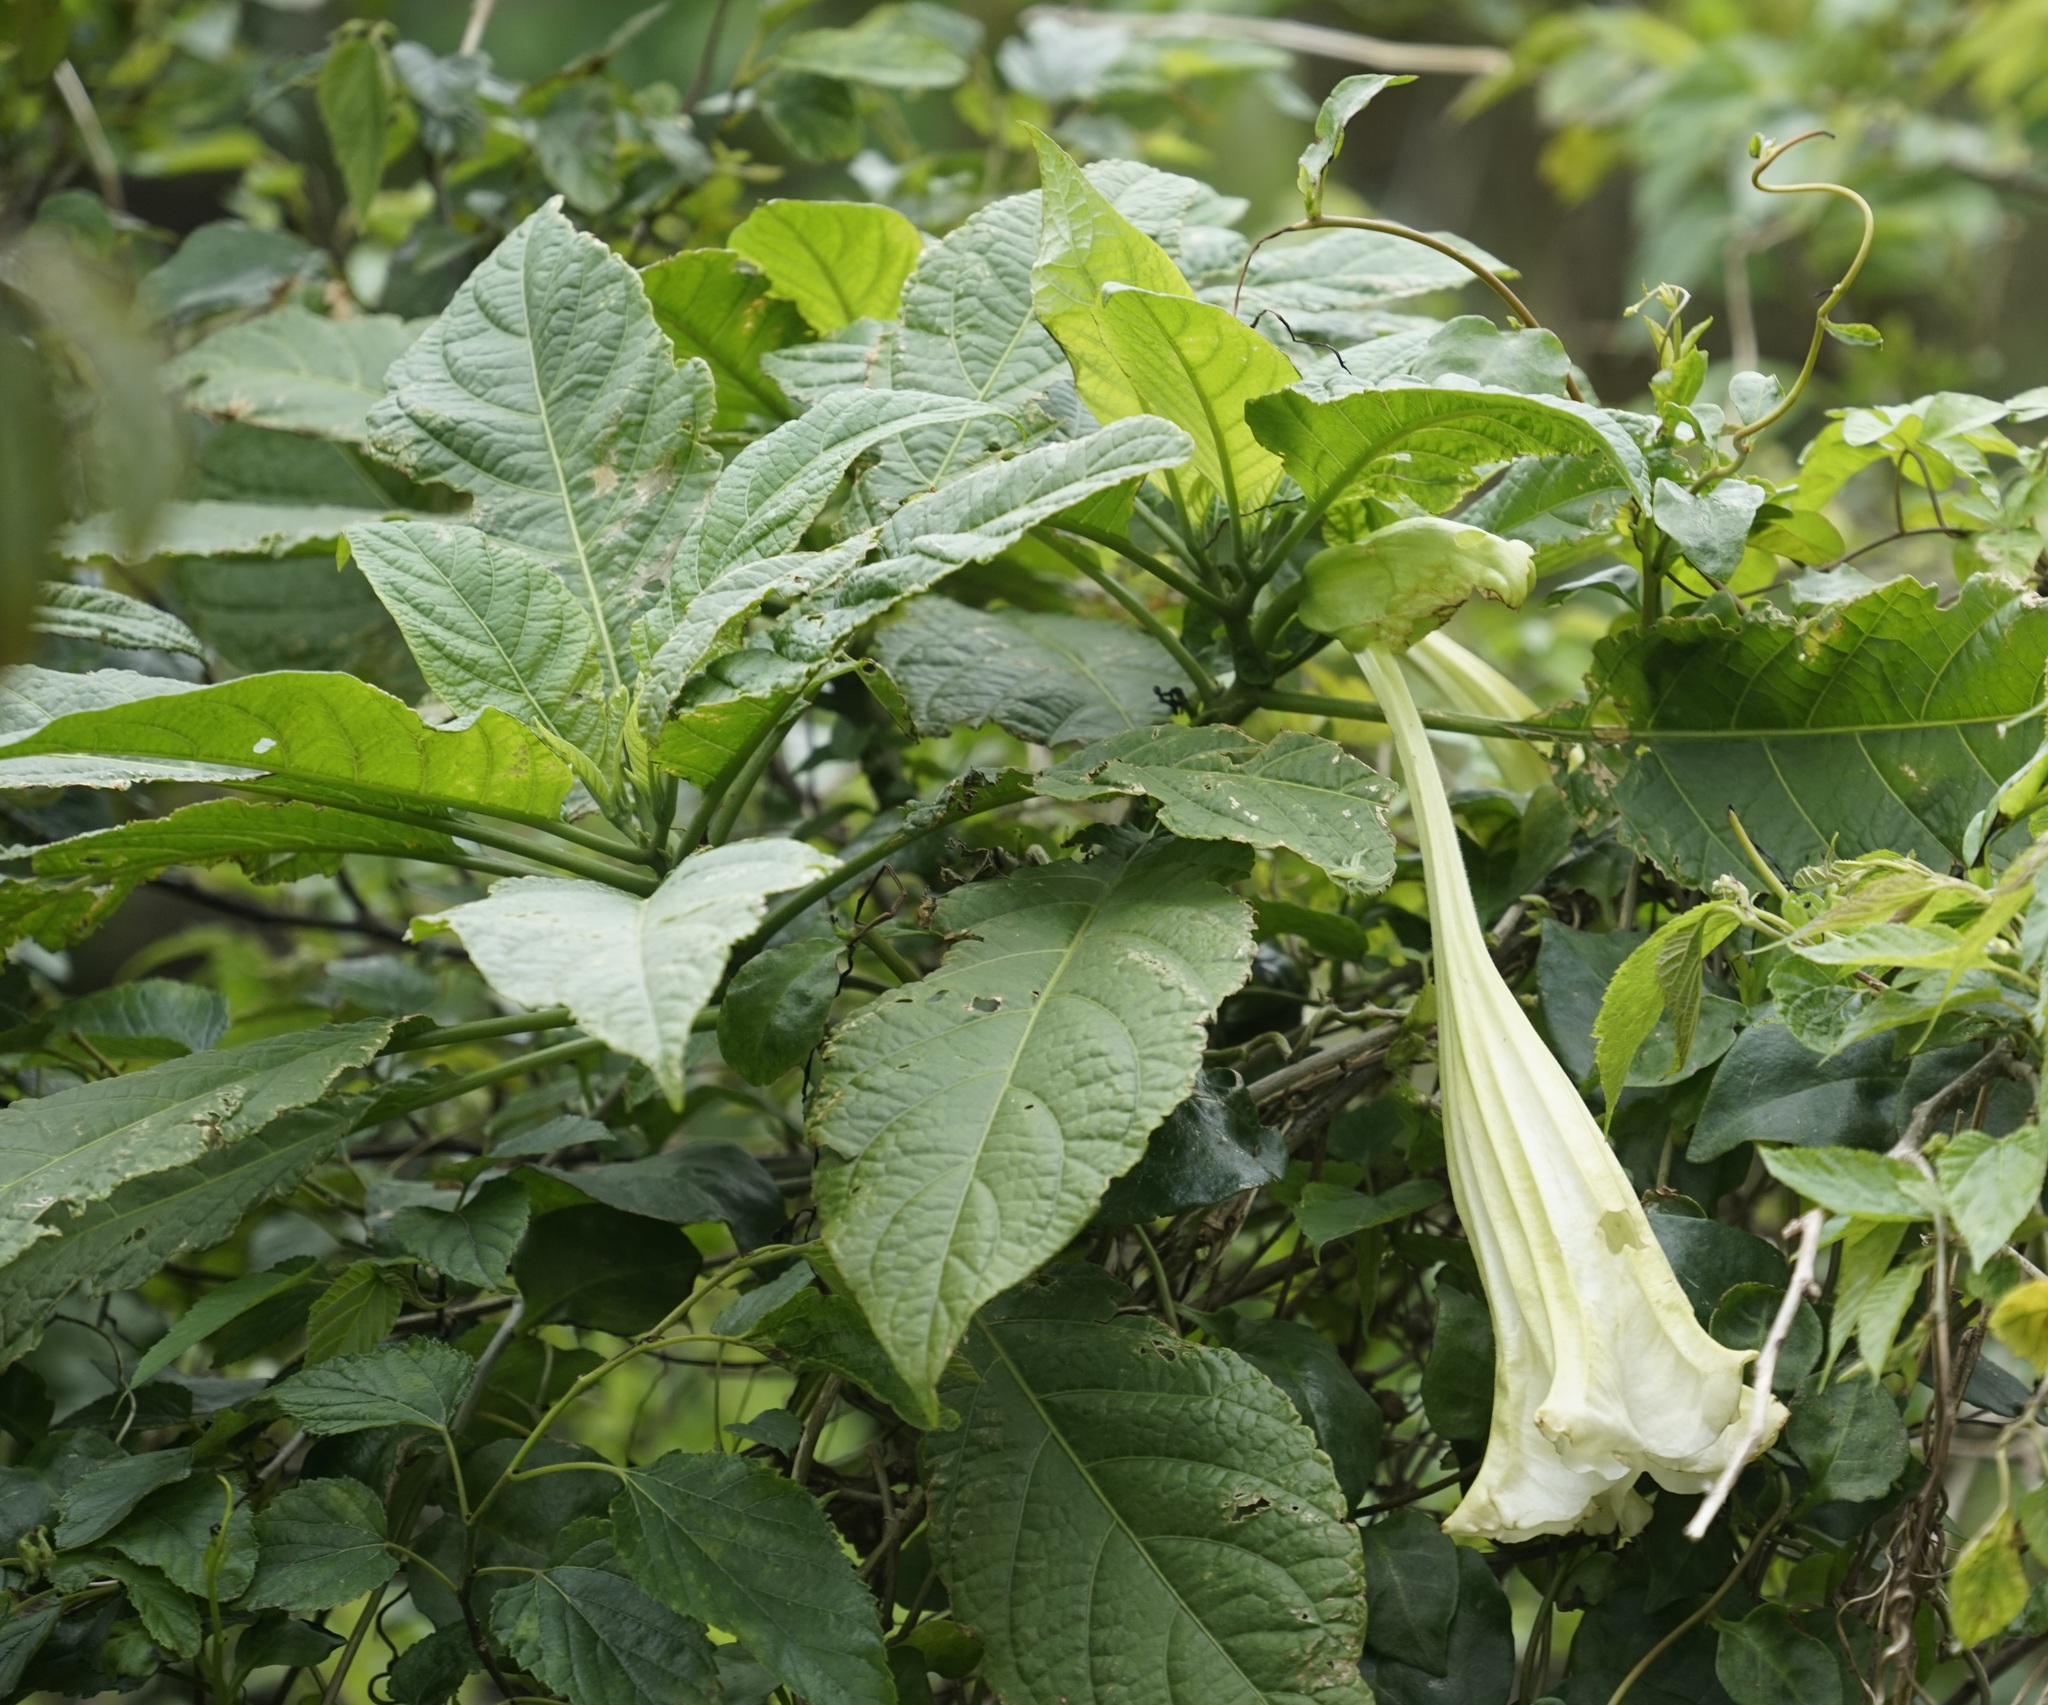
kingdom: Plantae
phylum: Tracheophyta
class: Magnoliopsida
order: Solanales
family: Solanaceae
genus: Brugmansia
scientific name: Brugmansia suaveolens
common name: Angel's tears
